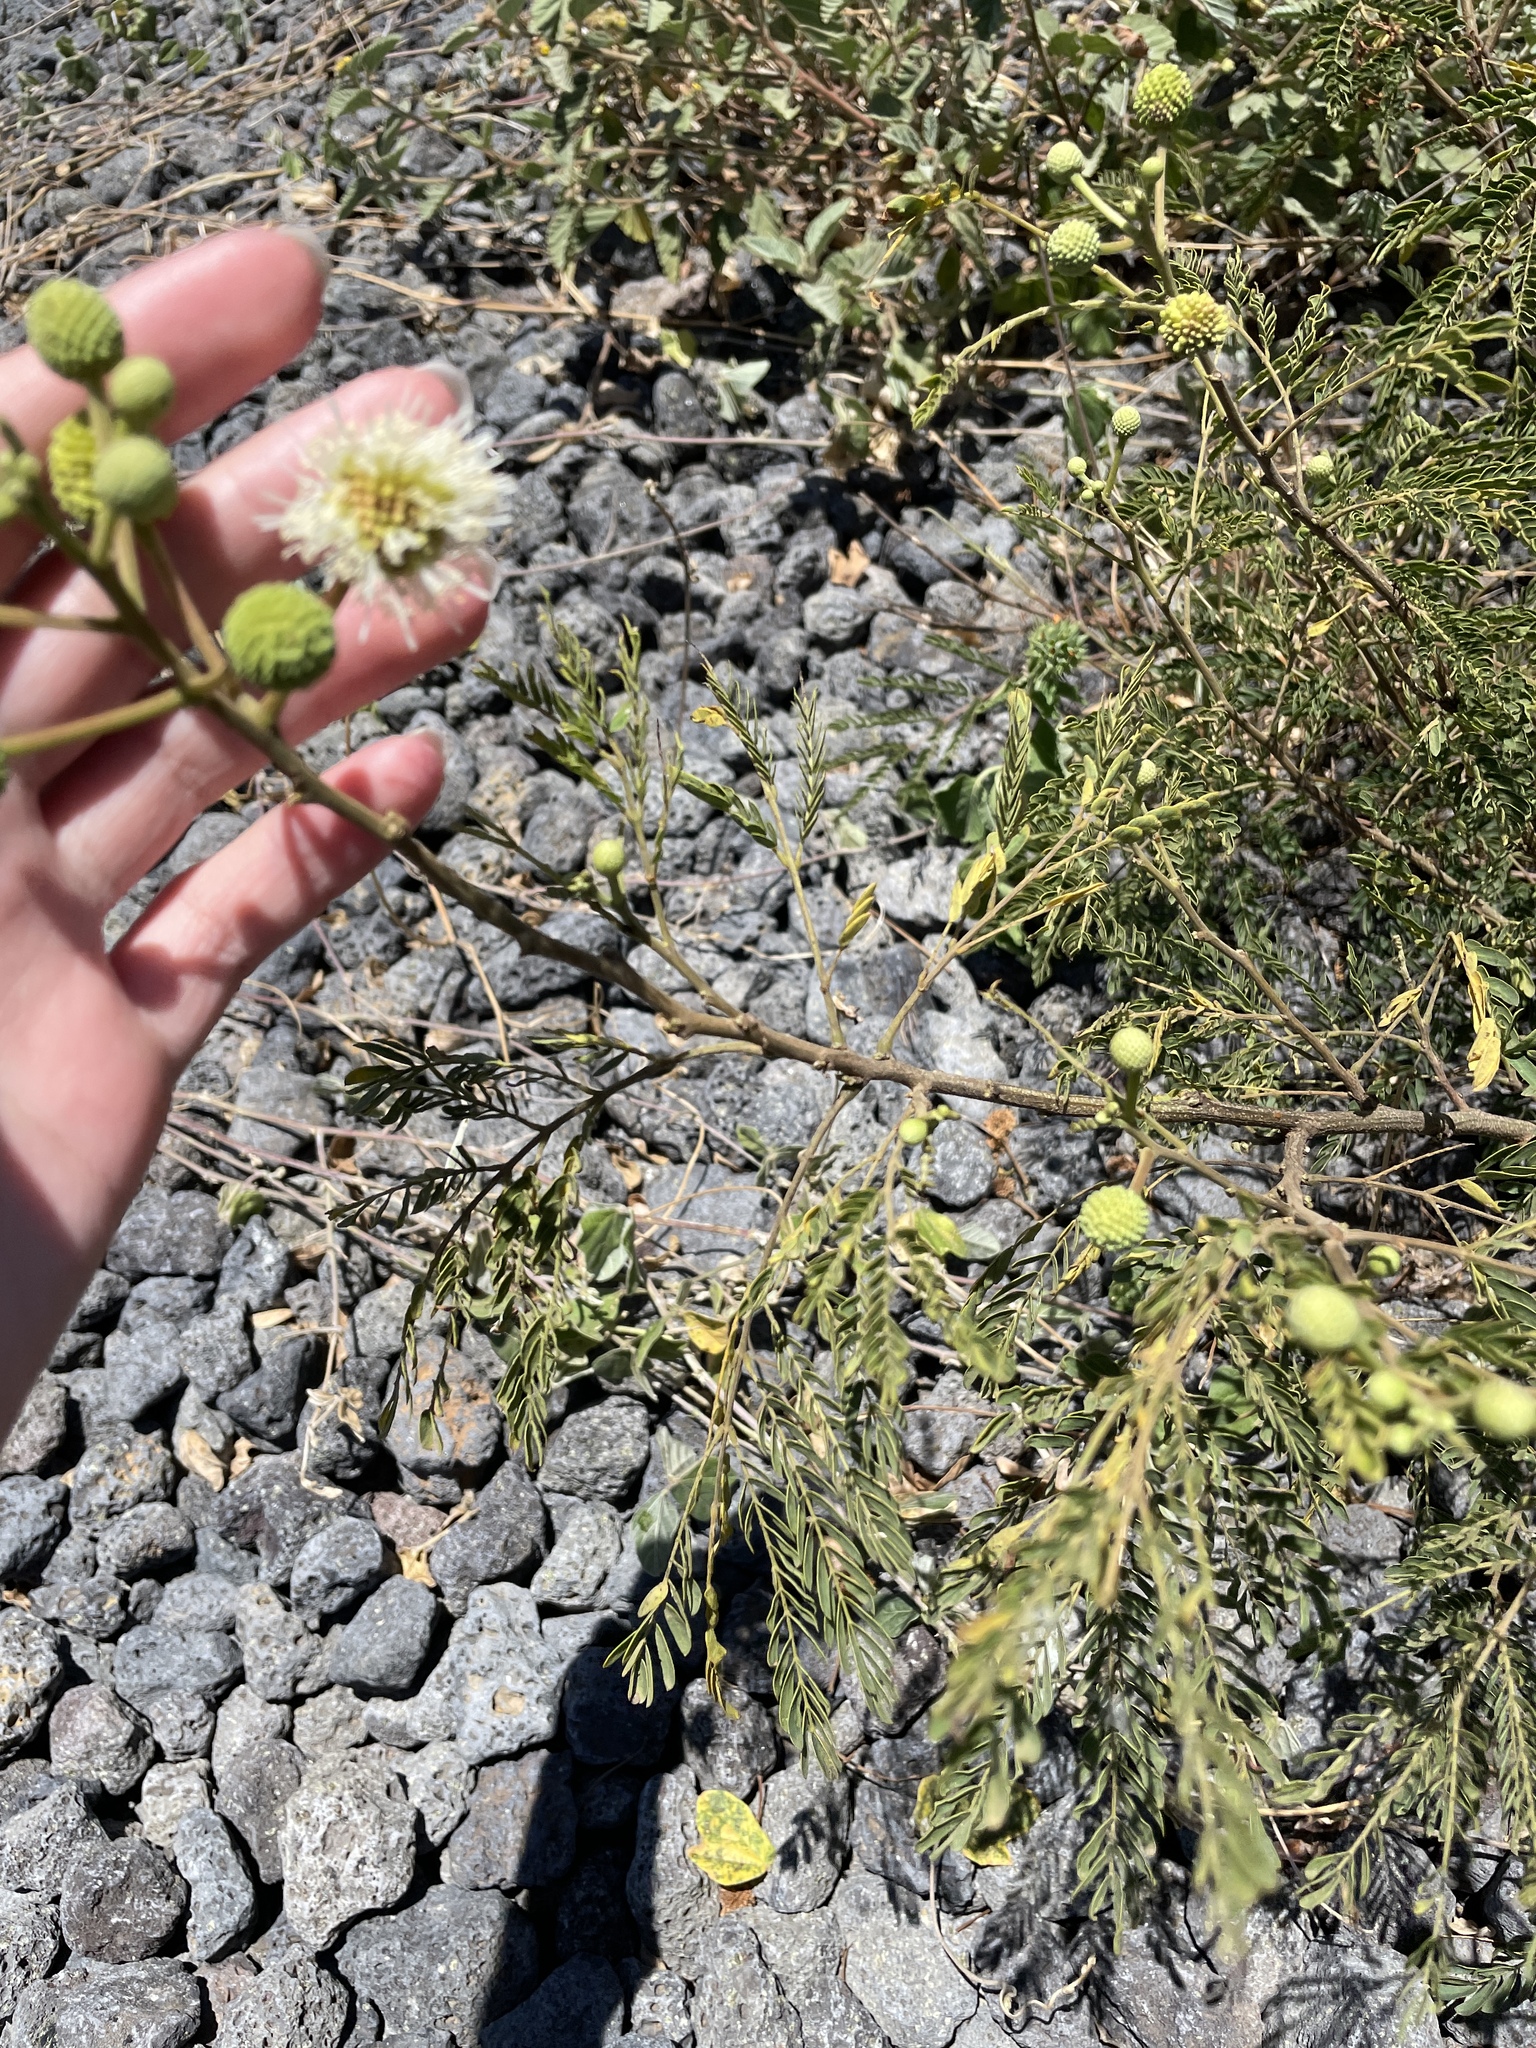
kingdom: Plantae
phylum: Tracheophyta
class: Magnoliopsida
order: Fabales
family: Fabaceae
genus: Leucaena
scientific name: Leucaena leucocephala
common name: White leadtree
